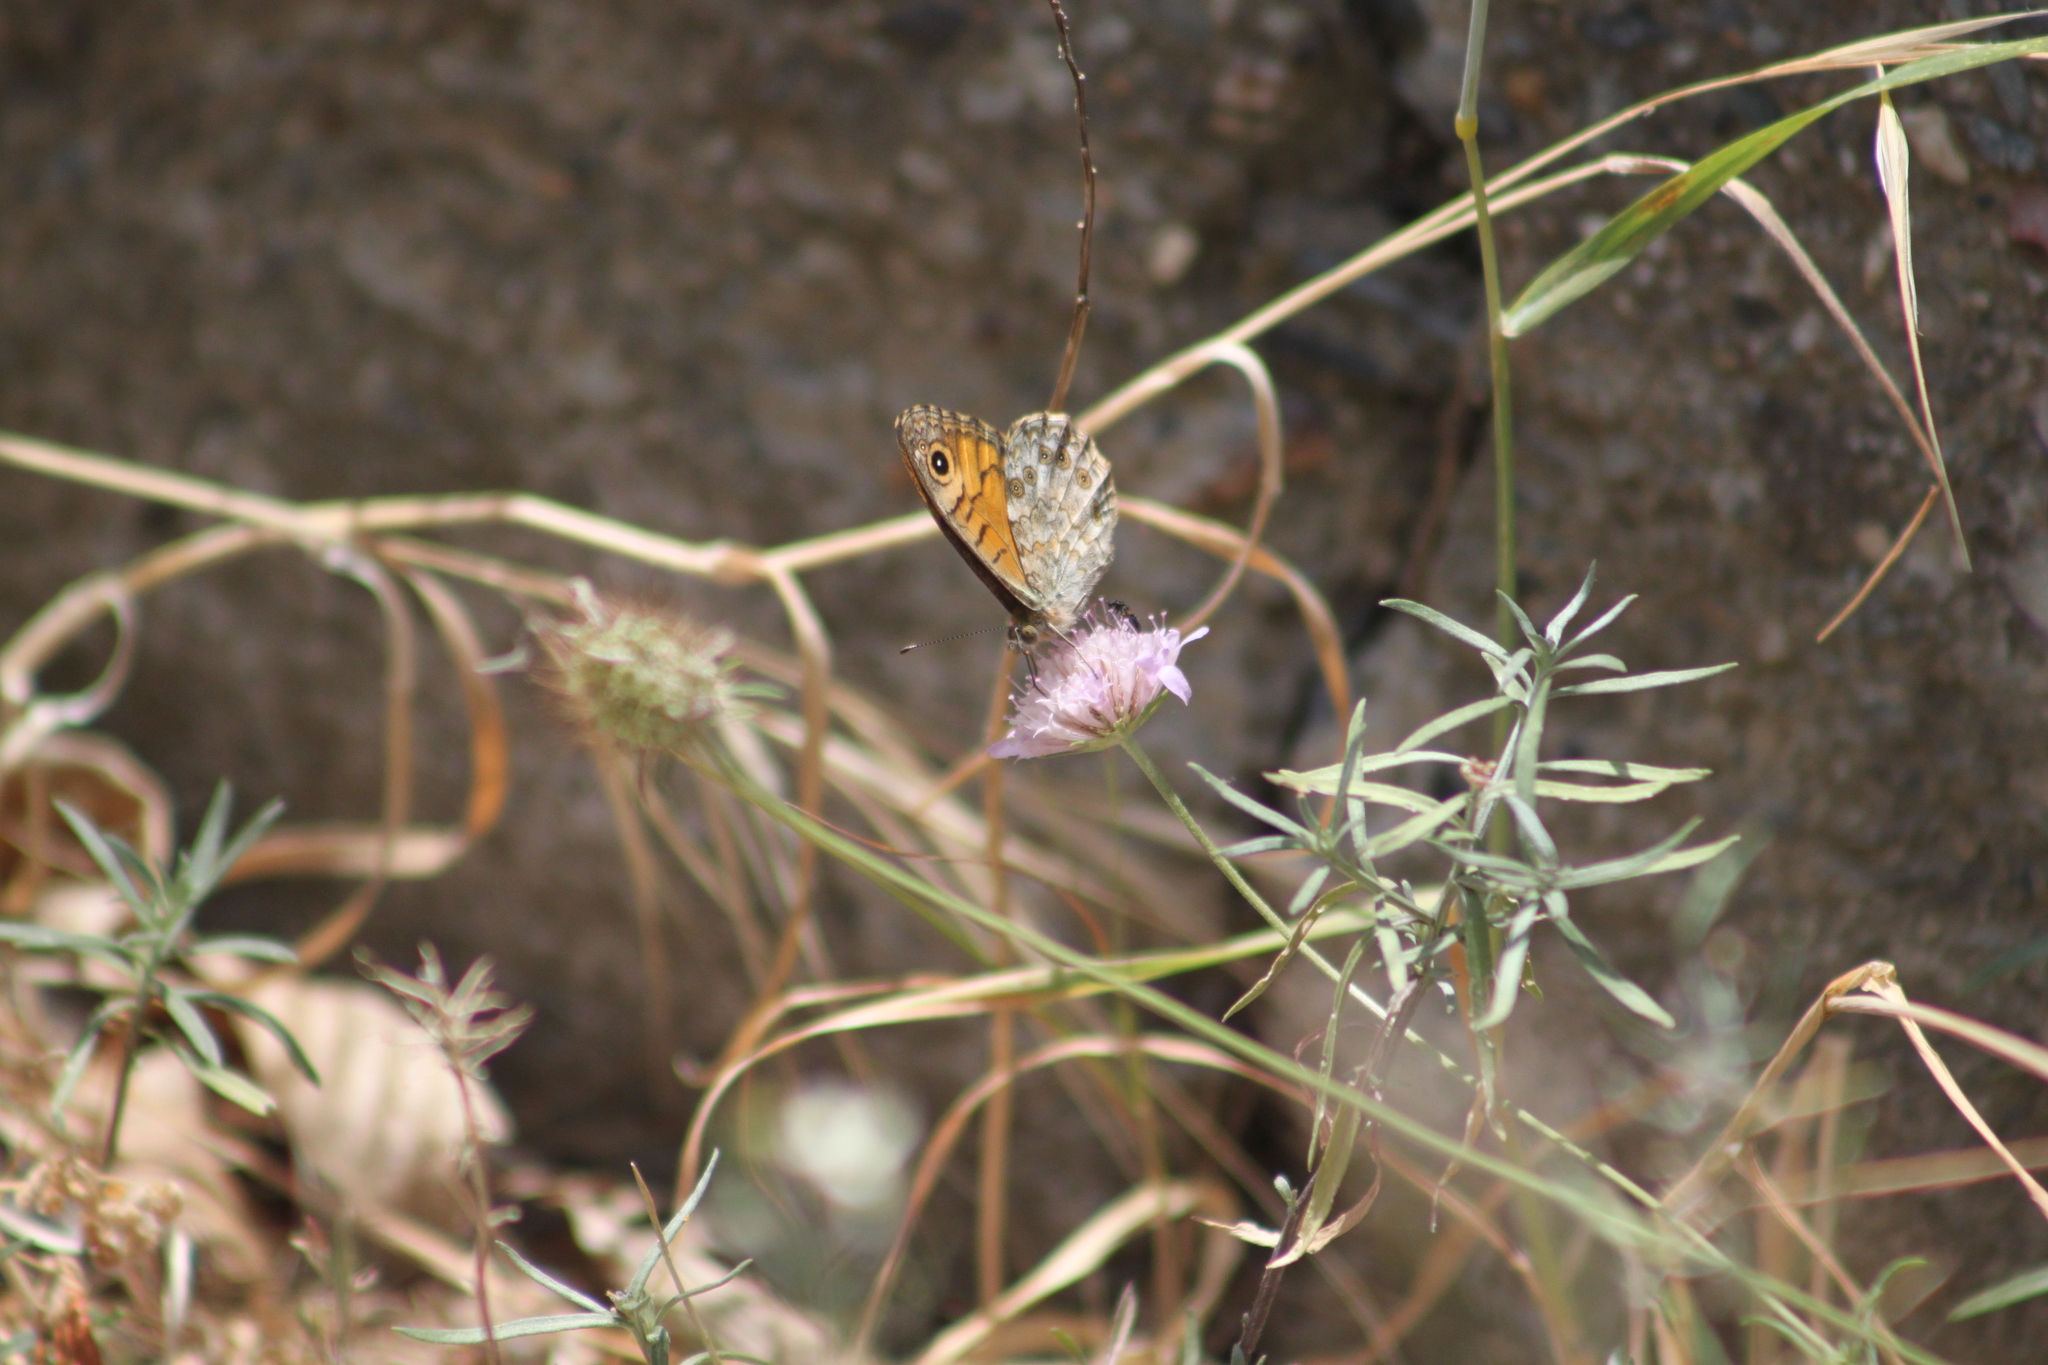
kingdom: Animalia
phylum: Arthropoda
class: Insecta
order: Lepidoptera
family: Nymphalidae
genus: Pararge
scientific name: Pararge Lasiommata megera
